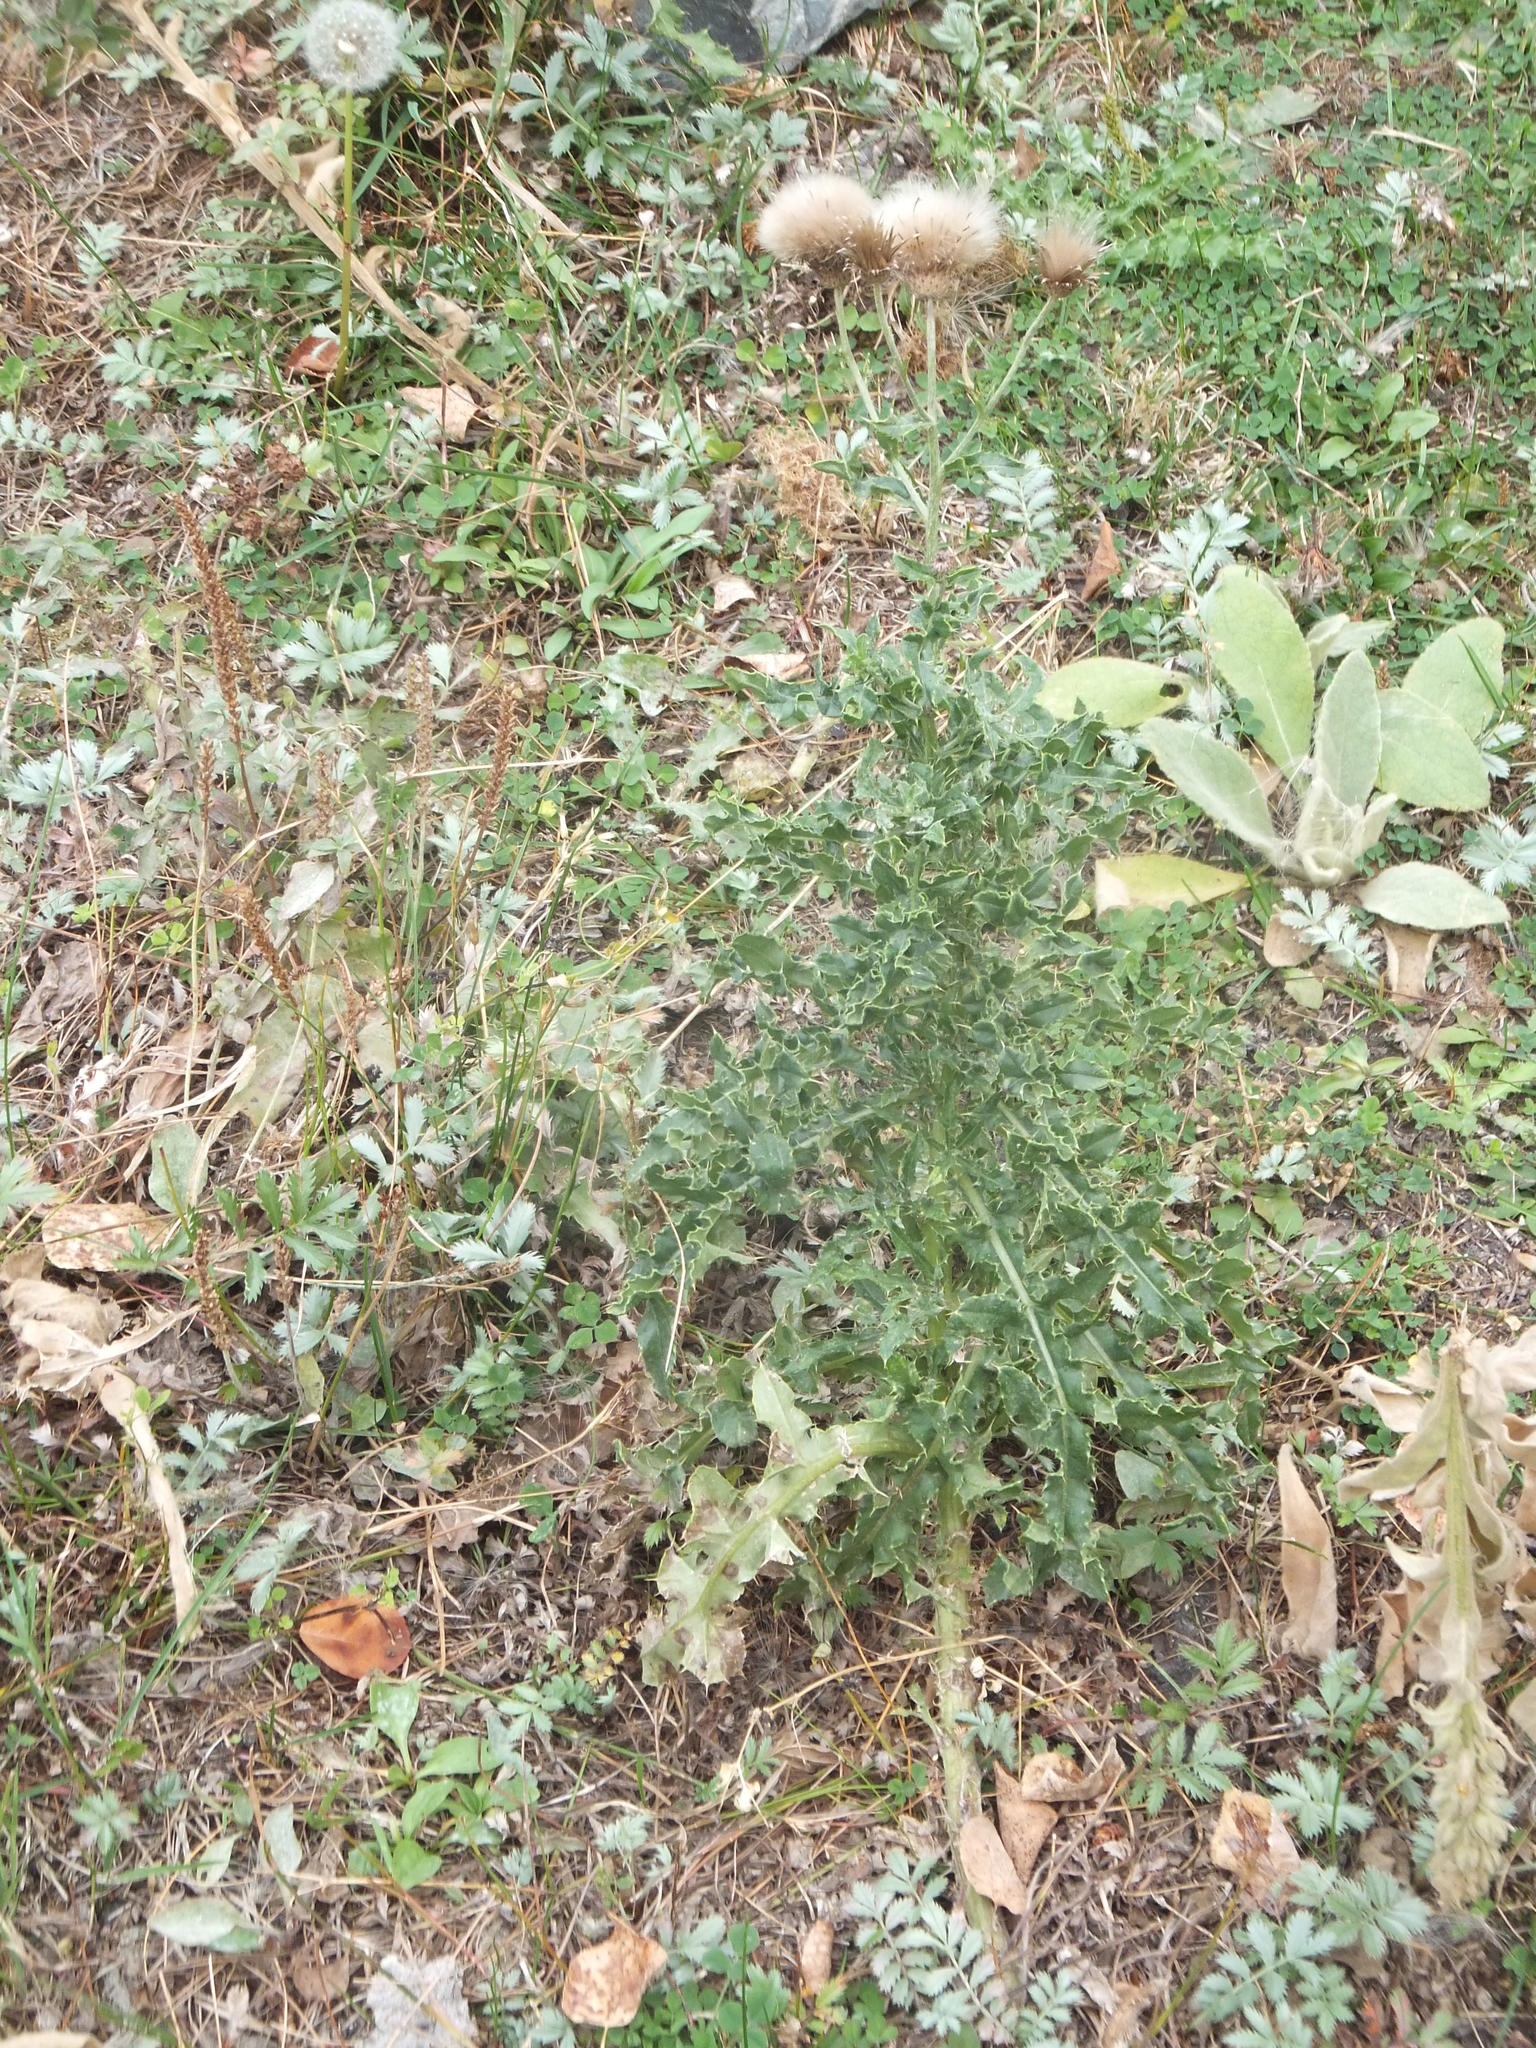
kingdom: Plantae
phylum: Tracheophyta
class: Magnoliopsida
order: Asterales
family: Asteraceae
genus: Cirsium
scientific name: Cirsium arvense
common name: Creeping thistle
